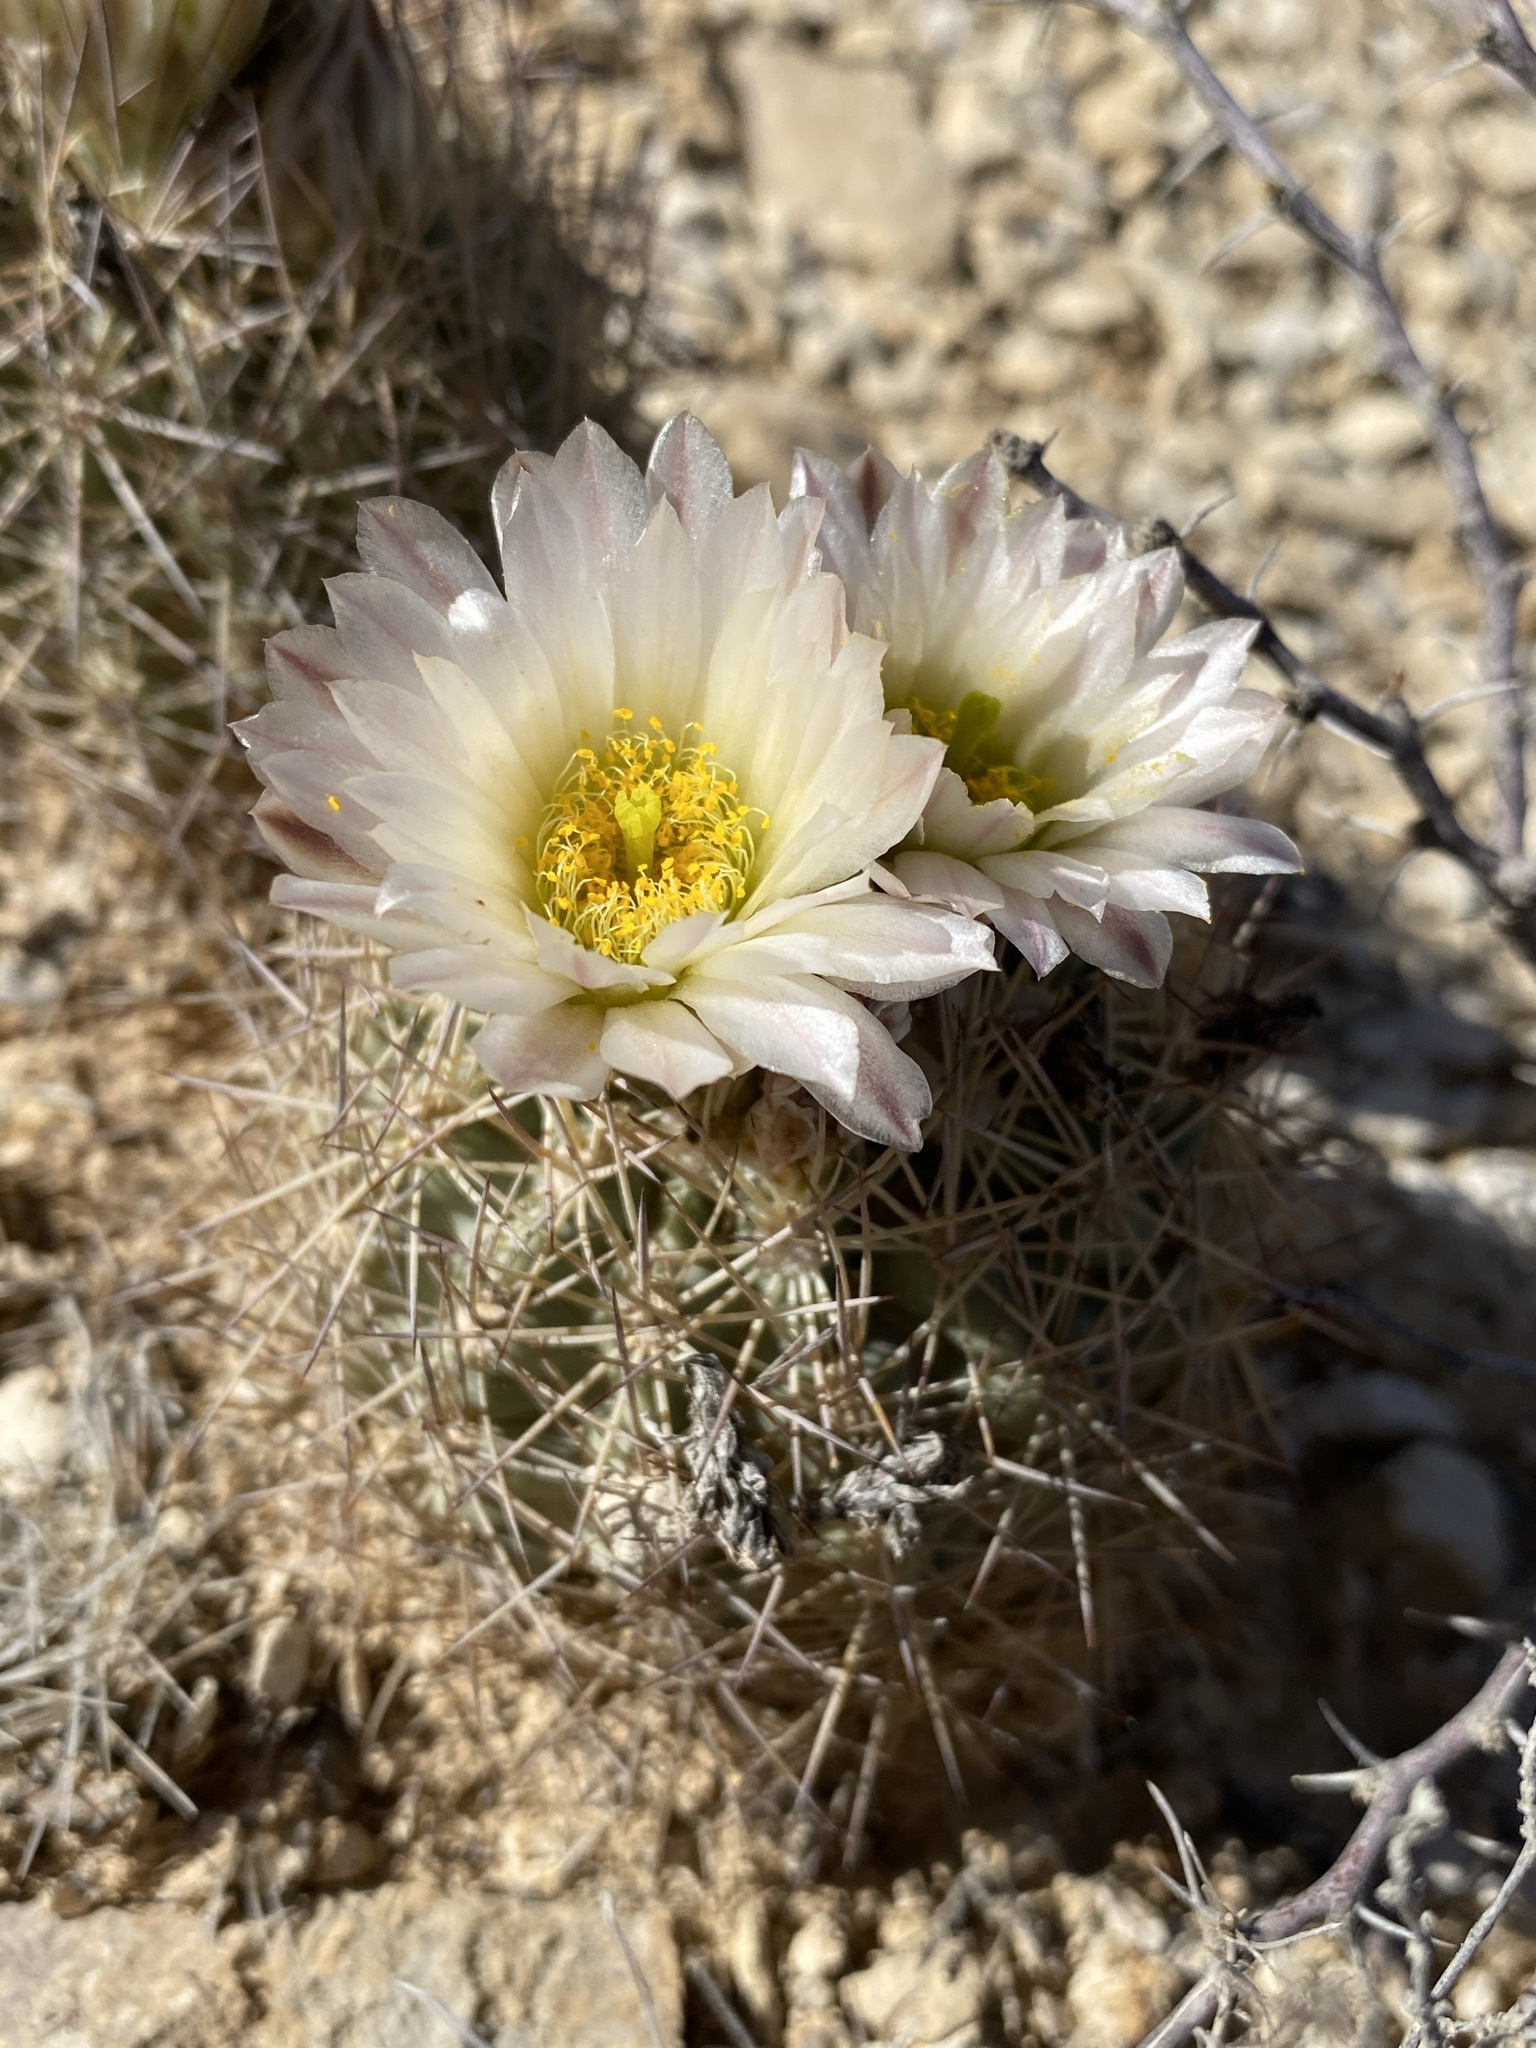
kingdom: Plantae
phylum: Tracheophyta
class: Magnoliopsida
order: Caryophyllales
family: Cactaceae
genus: Sclerocactus
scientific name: Sclerocactus warnockii
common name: Pineapple cactus
